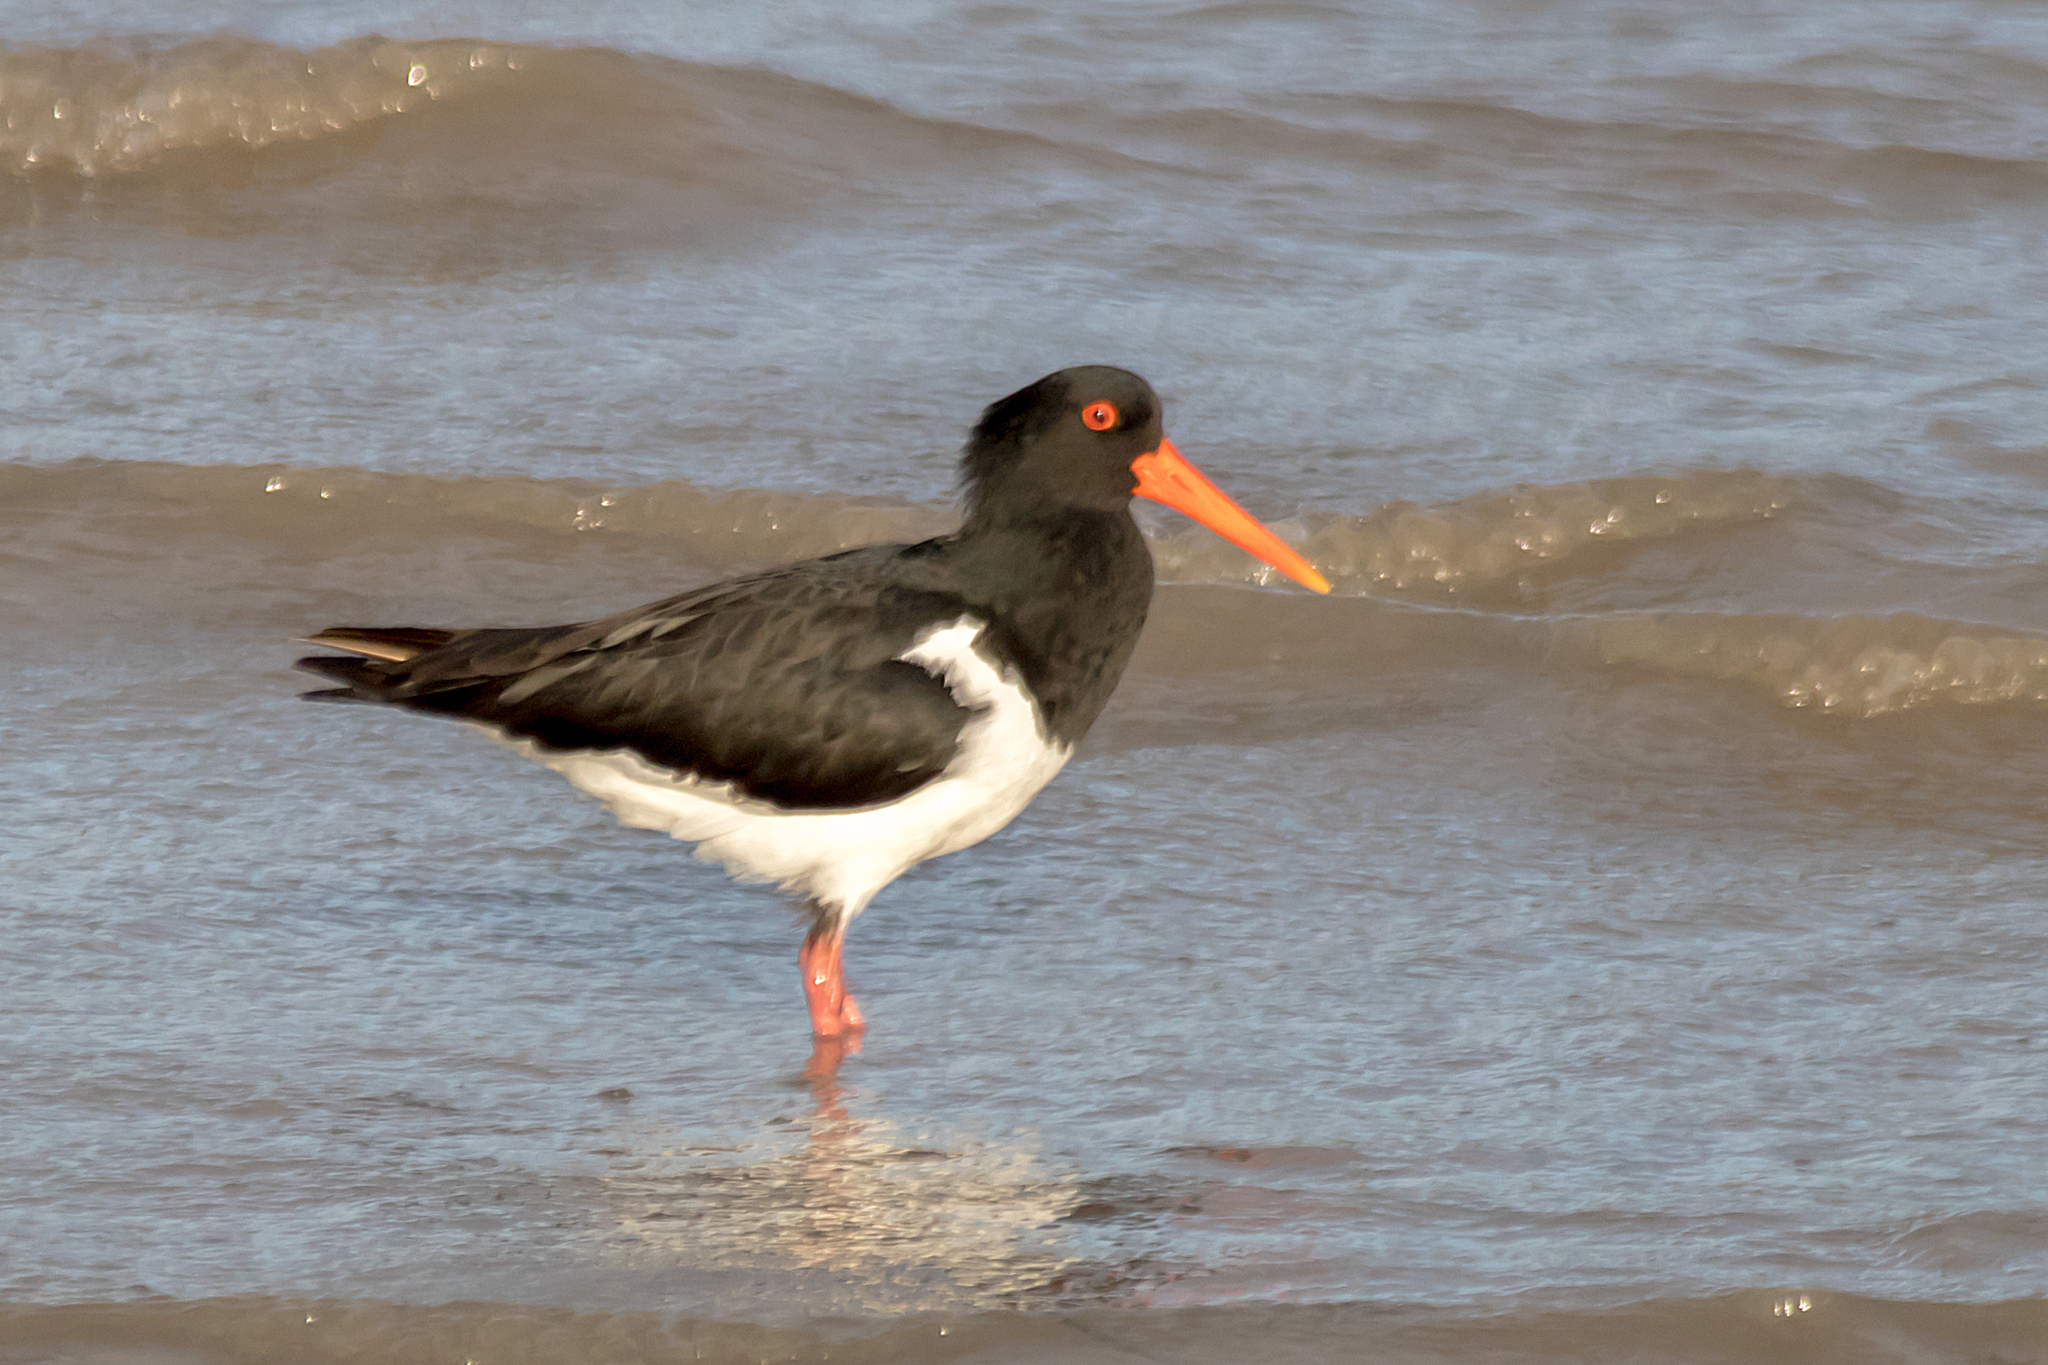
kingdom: Animalia
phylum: Chordata
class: Aves
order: Charadriiformes
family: Haematopodidae
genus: Haematopus
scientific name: Haematopus longirostris
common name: Pied oystercatcher
